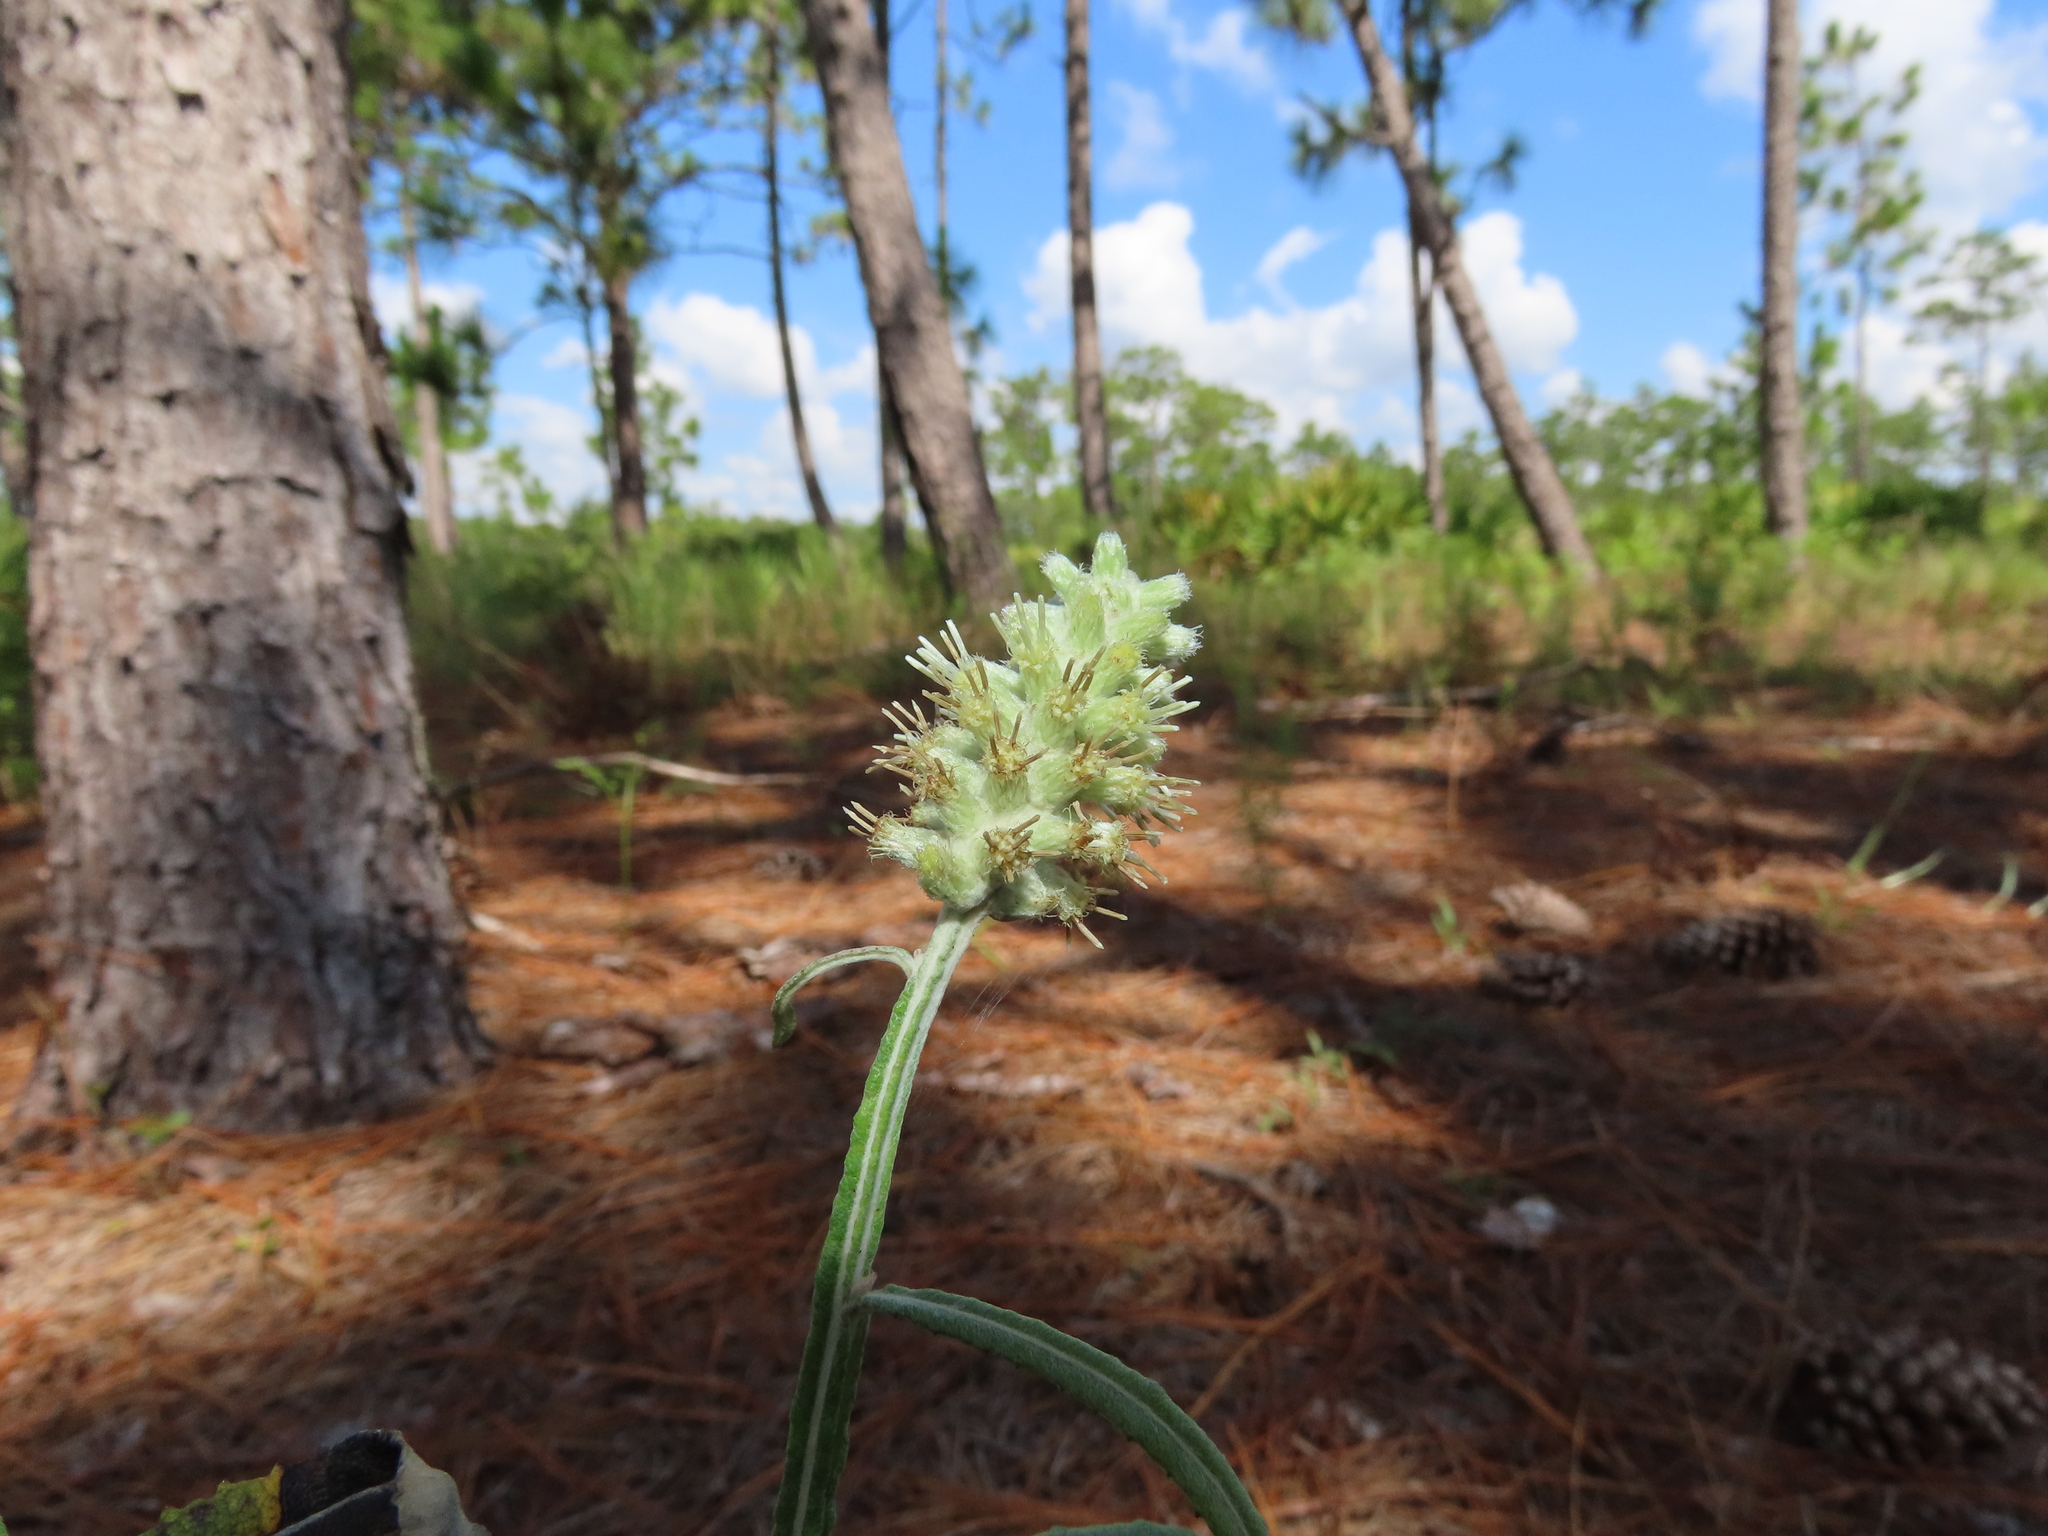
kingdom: Plantae
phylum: Tracheophyta
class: Magnoliopsida
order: Asterales
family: Asteraceae
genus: Pterocaulon
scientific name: Pterocaulon pycnostachyum
